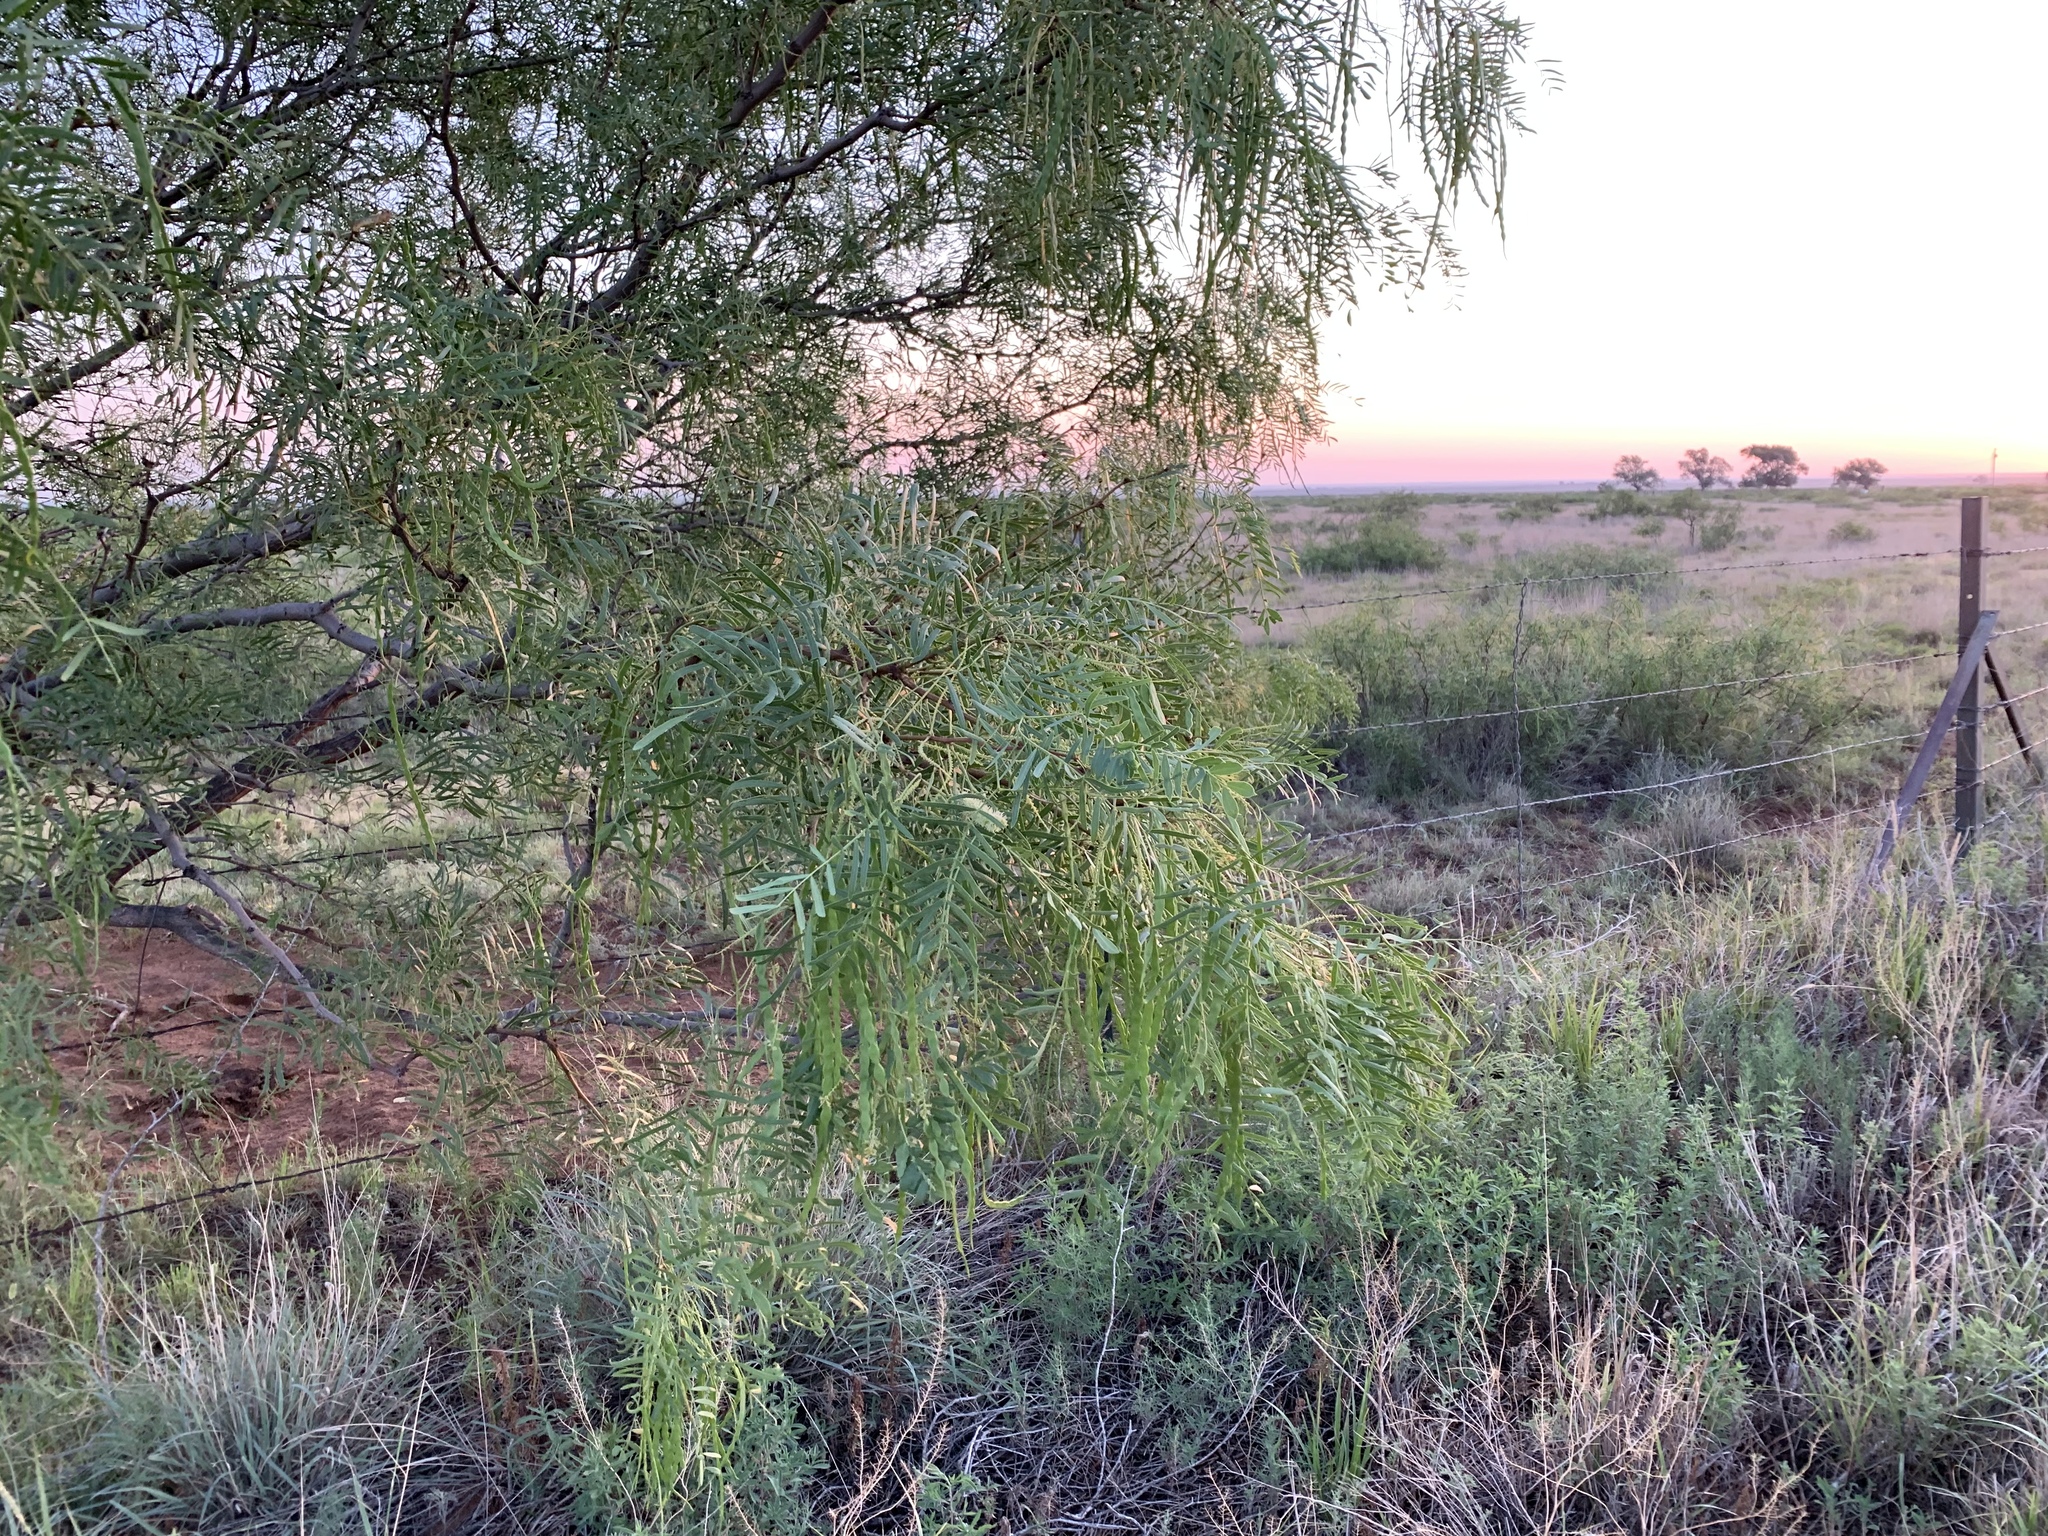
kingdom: Plantae
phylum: Tracheophyta
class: Magnoliopsida
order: Fabales
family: Fabaceae
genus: Prosopis
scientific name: Prosopis glandulosa
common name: Honey mesquite
